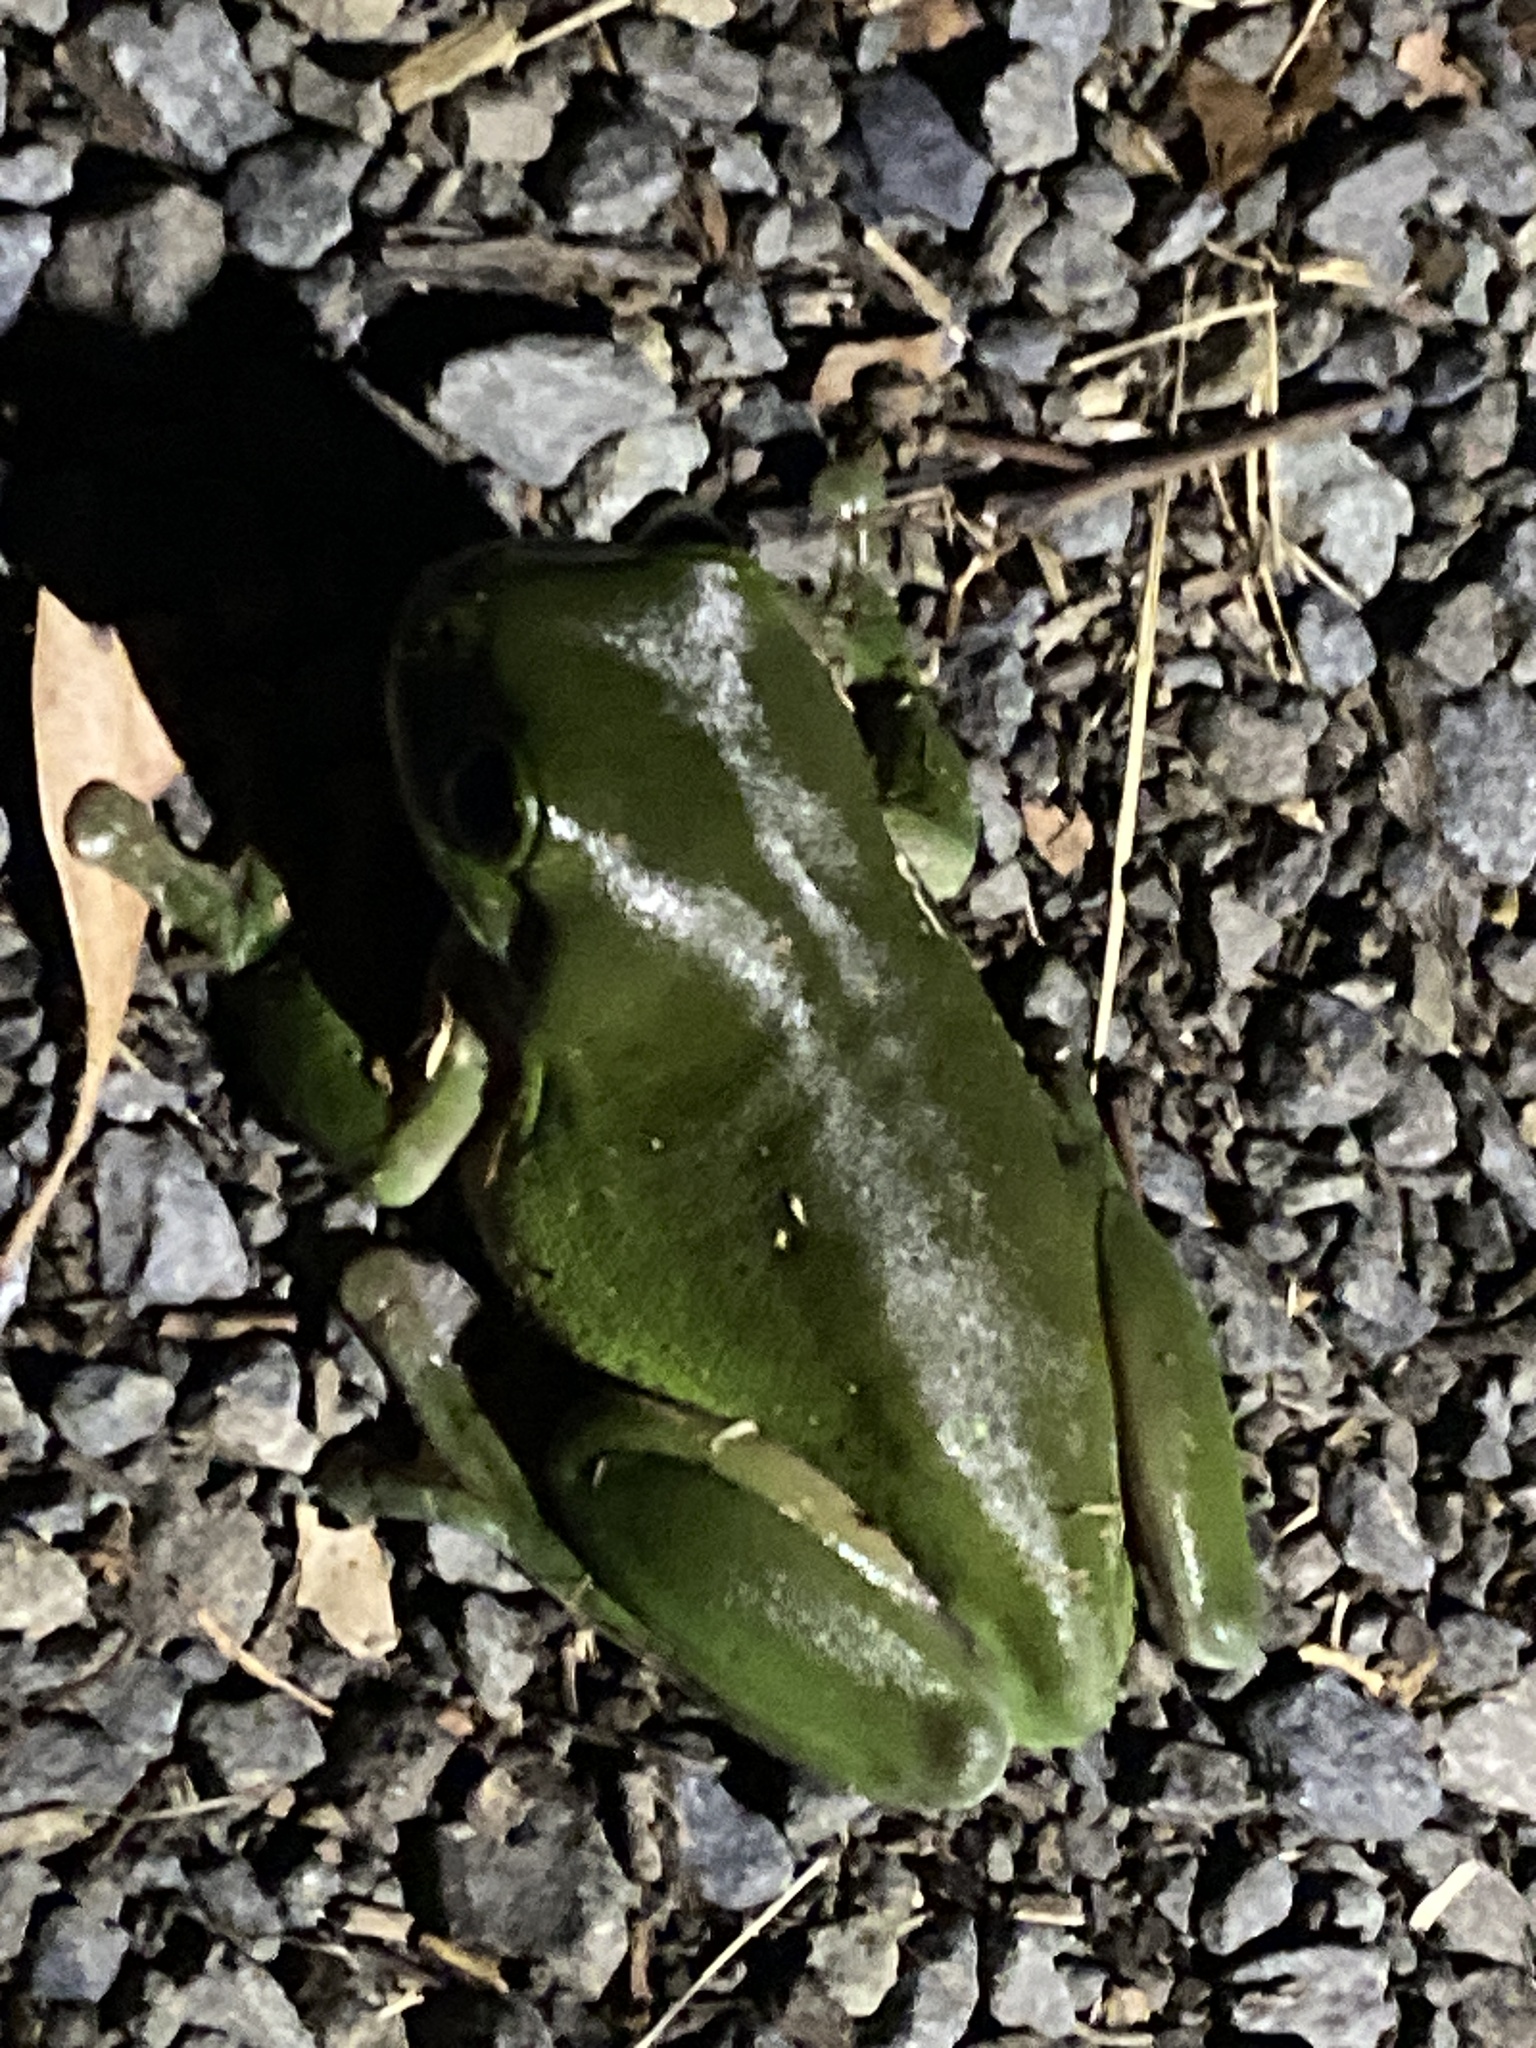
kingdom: Animalia
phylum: Chordata
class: Amphibia
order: Anura
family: Pelodryadidae
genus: Ranoidea
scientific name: Ranoidea caerulea
